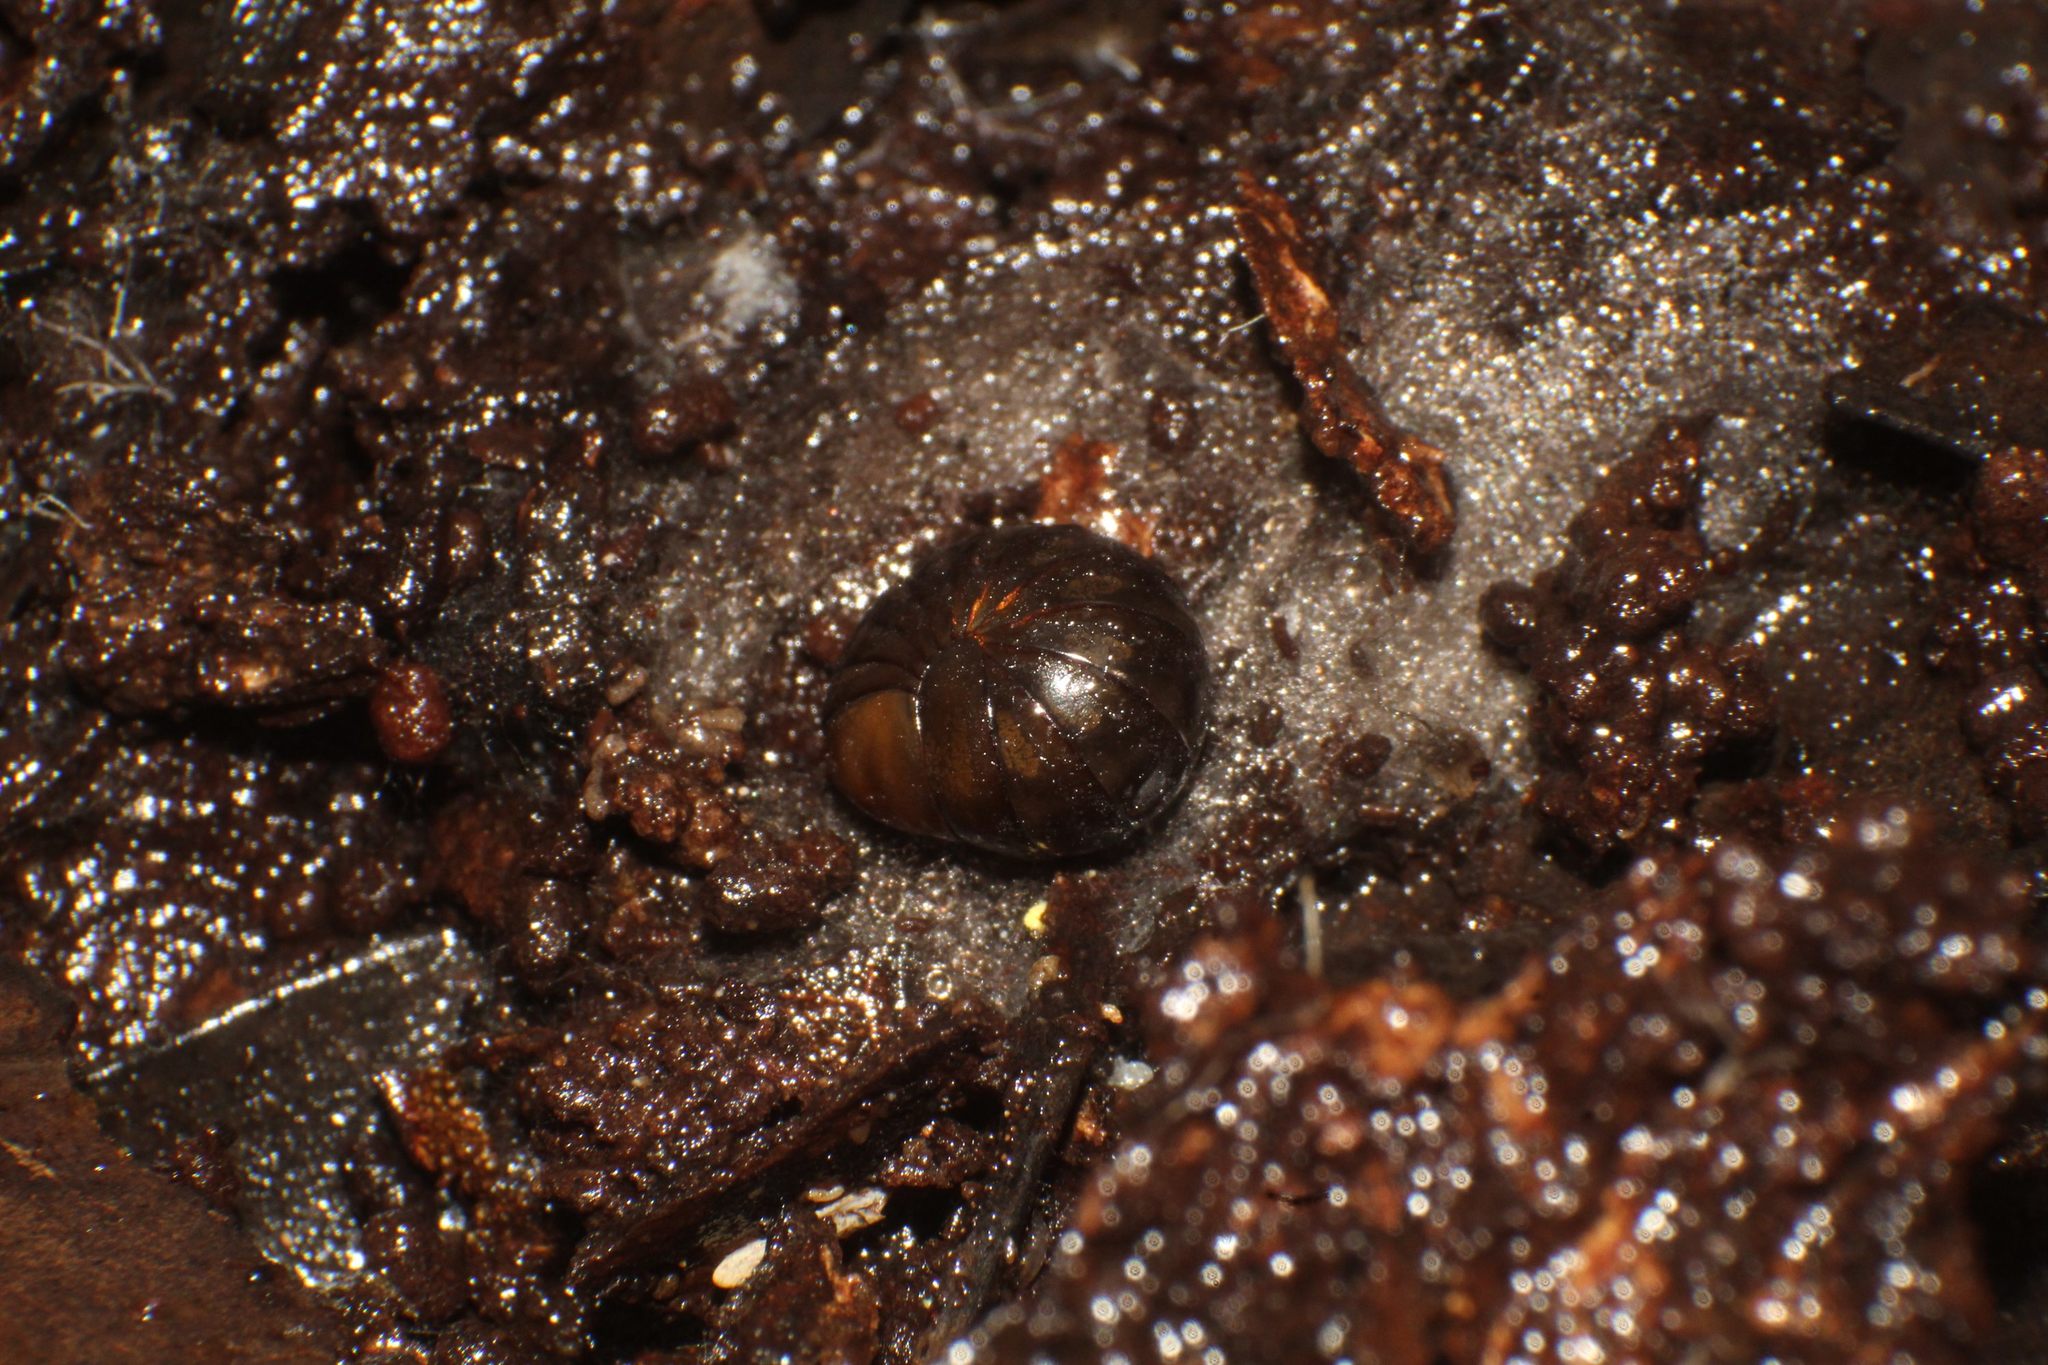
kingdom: Animalia
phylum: Arthropoda
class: Diplopoda
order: Sphaerotheriida
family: Cyliosomatidae
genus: Cynotelopus
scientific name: Cynotelopus notabilis
